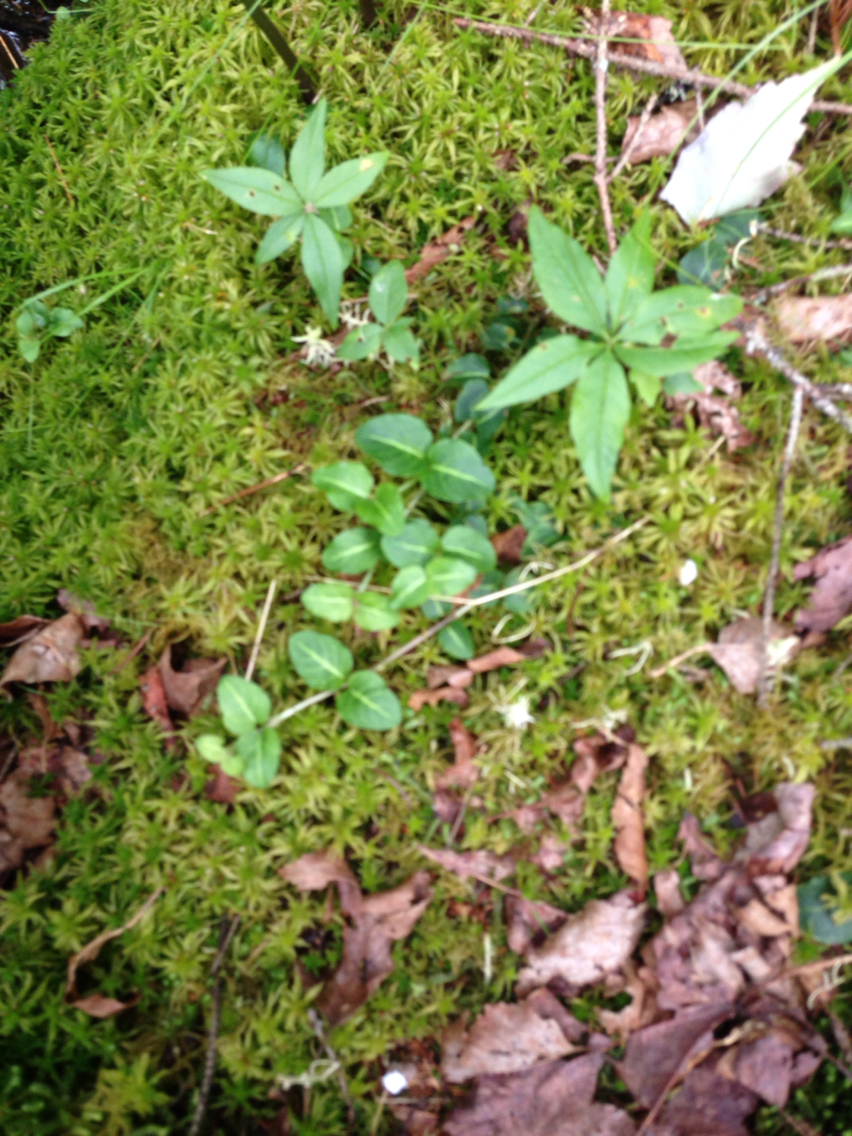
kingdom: Plantae
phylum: Tracheophyta
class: Magnoliopsida
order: Gentianales
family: Rubiaceae
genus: Mitchella
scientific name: Mitchella repens
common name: Partridge-berry
